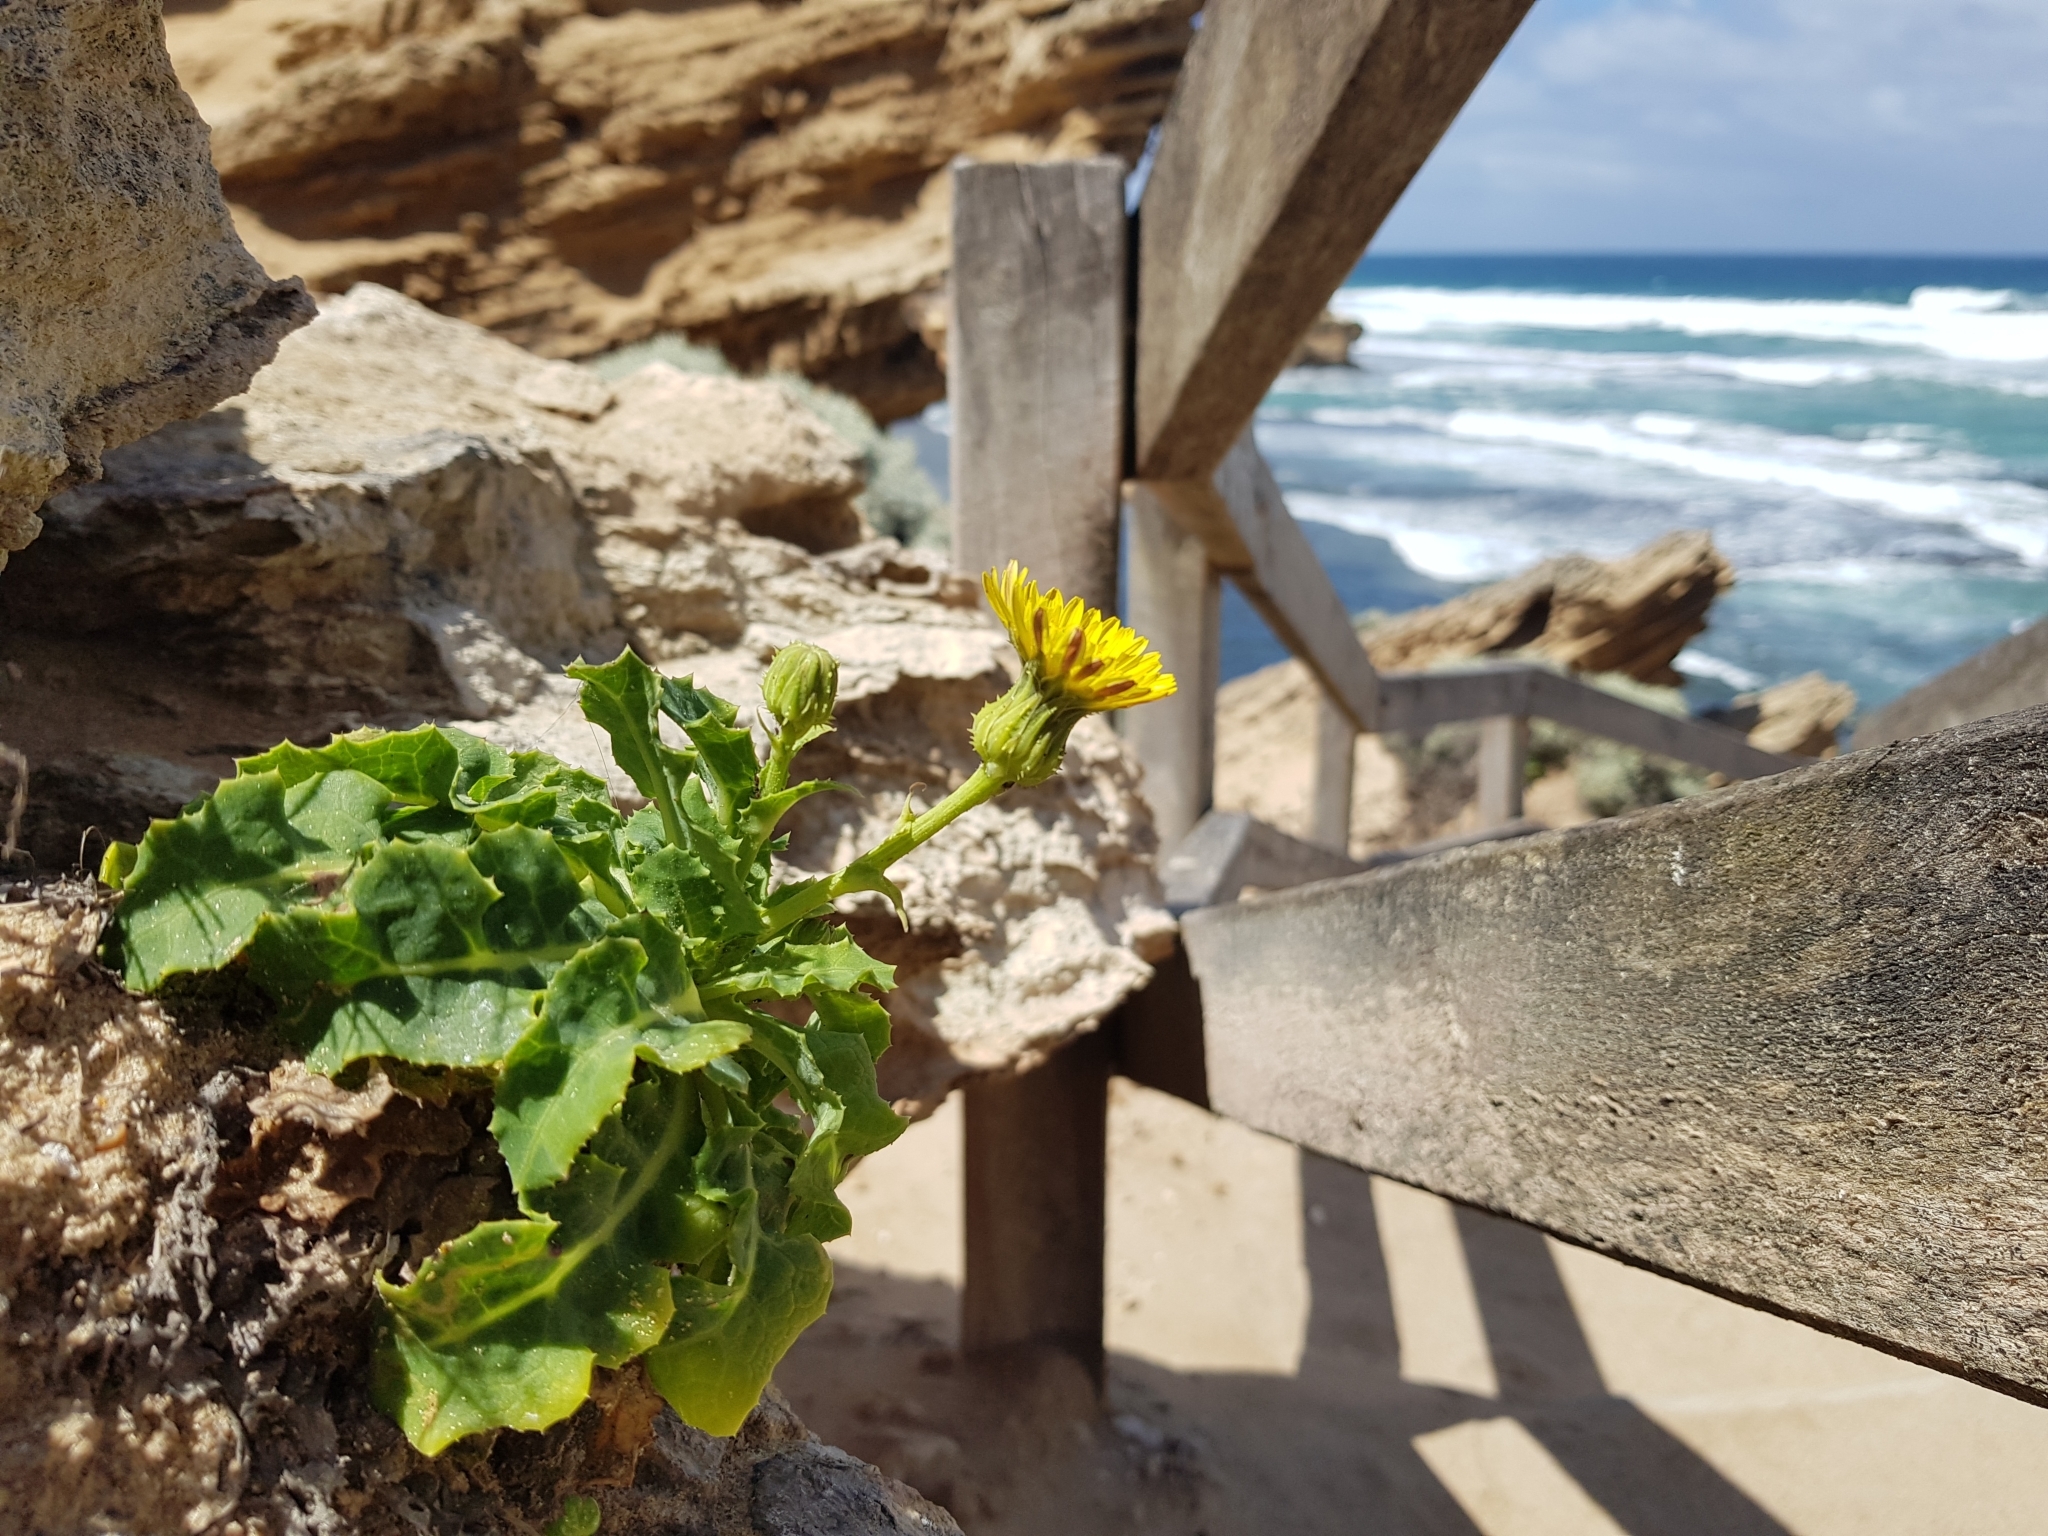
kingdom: Plantae
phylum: Tracheophyta
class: Magnoliopsida
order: Asterales
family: Asteraceae
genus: Sonchus
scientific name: Sonchus megalocarpus
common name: Dune thistle
